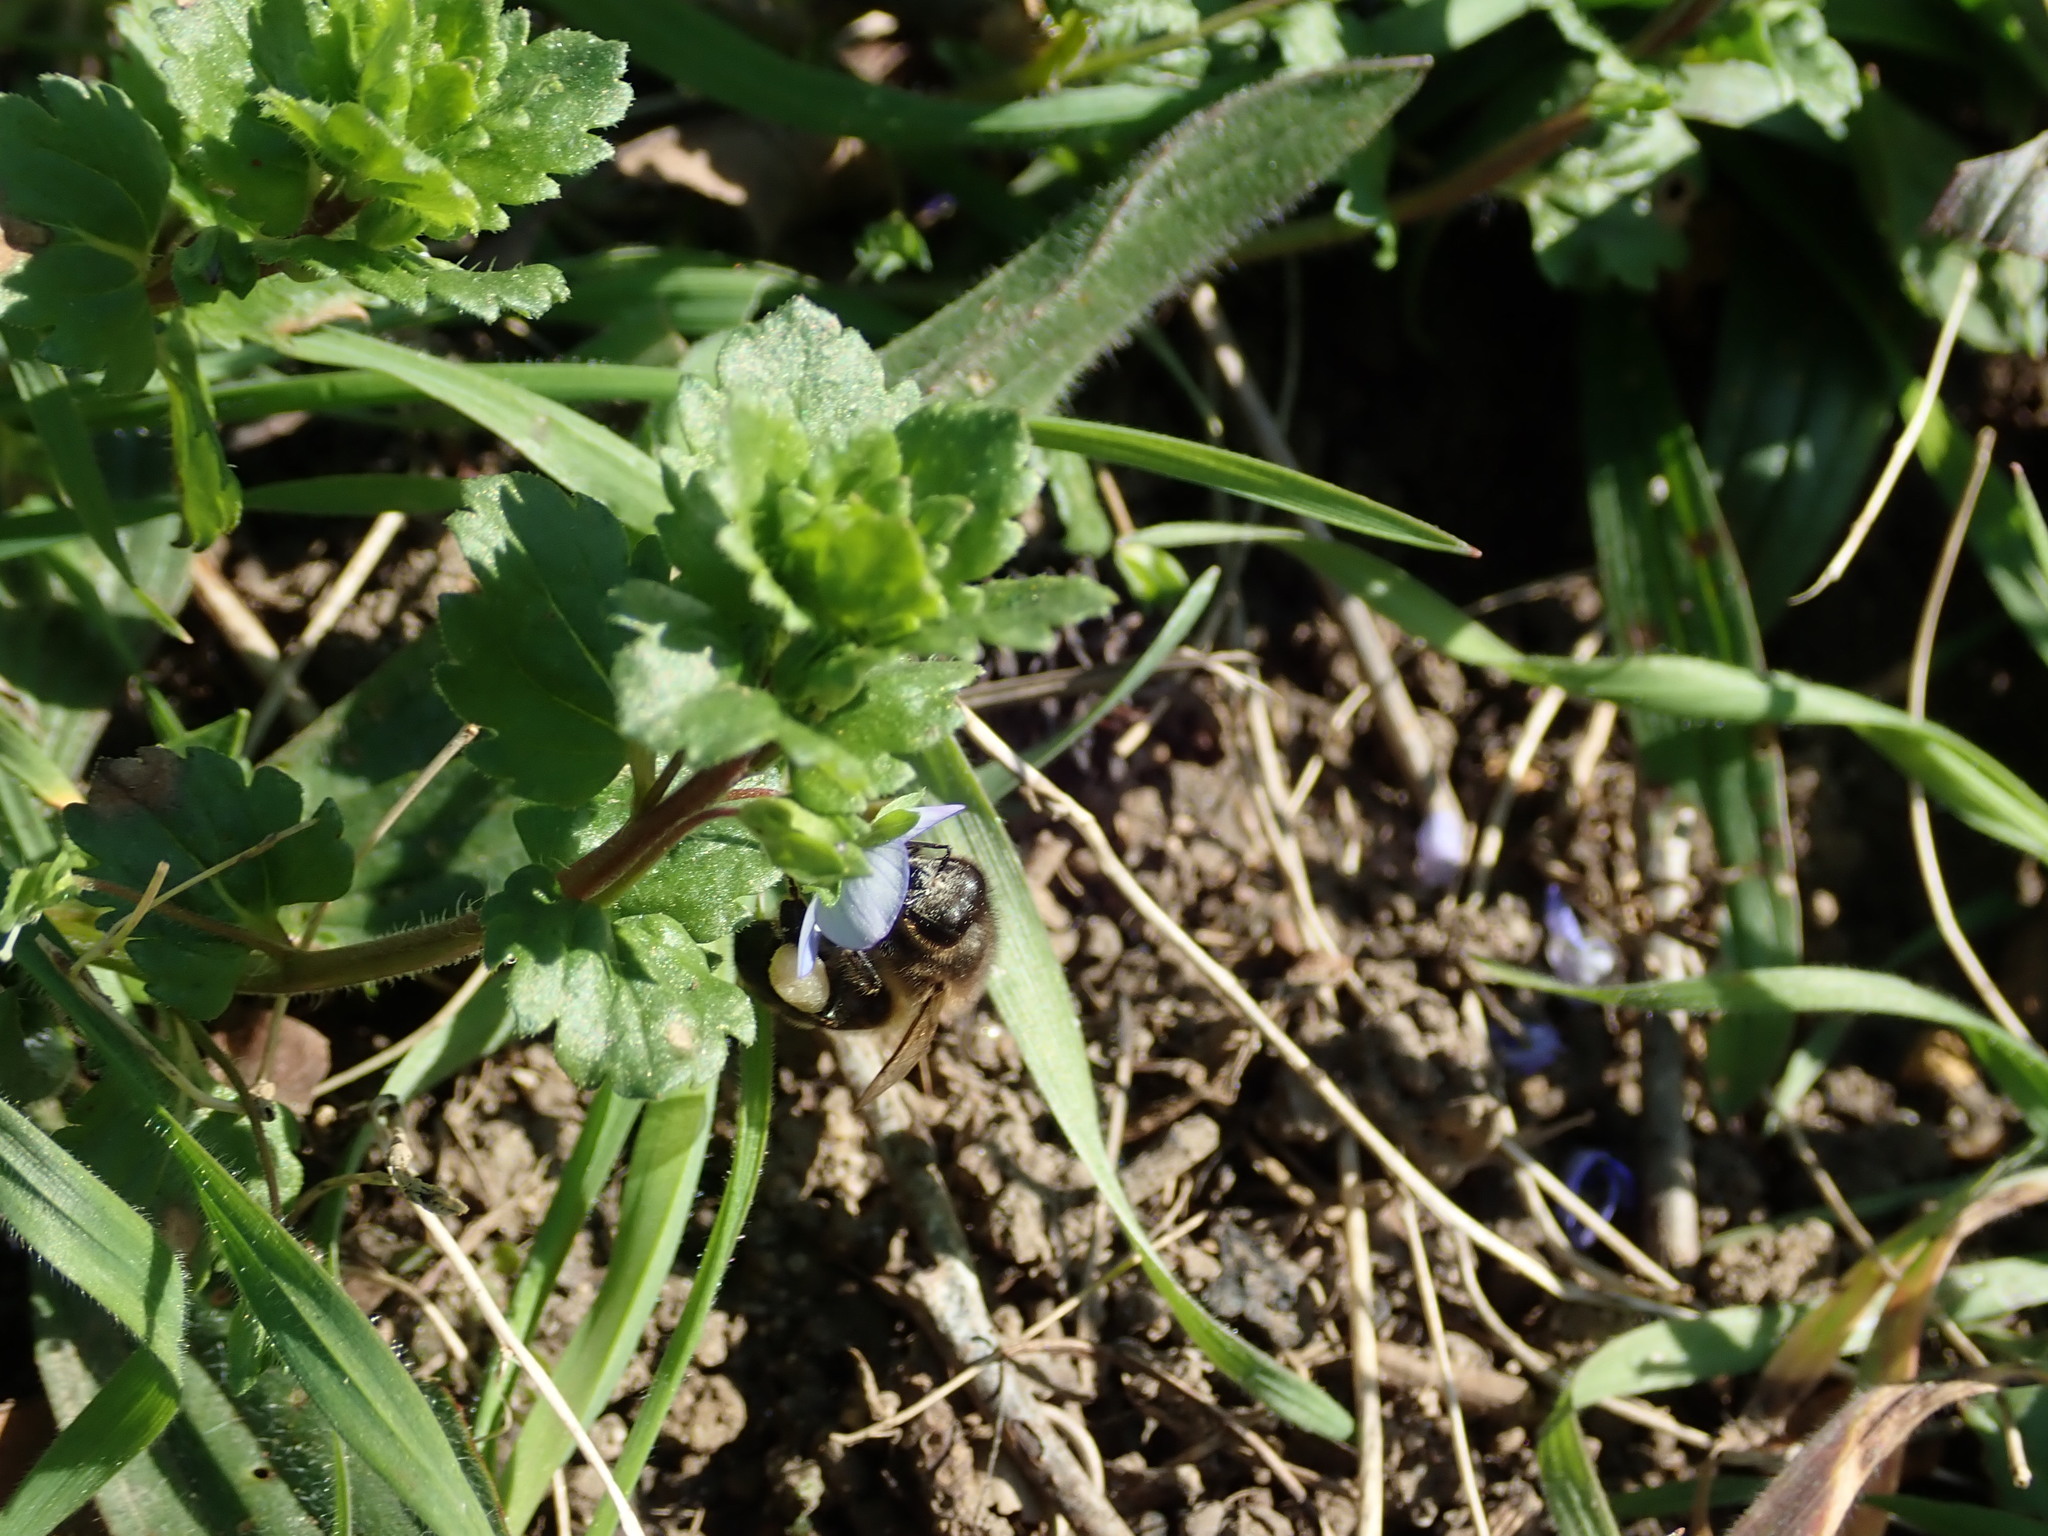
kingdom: Plantae
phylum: Tracheophyta
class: Magnoliopsida
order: Lamiales
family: Plantaginaceae
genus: Veronica
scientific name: Veronica persica
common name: Common field-speedwell
